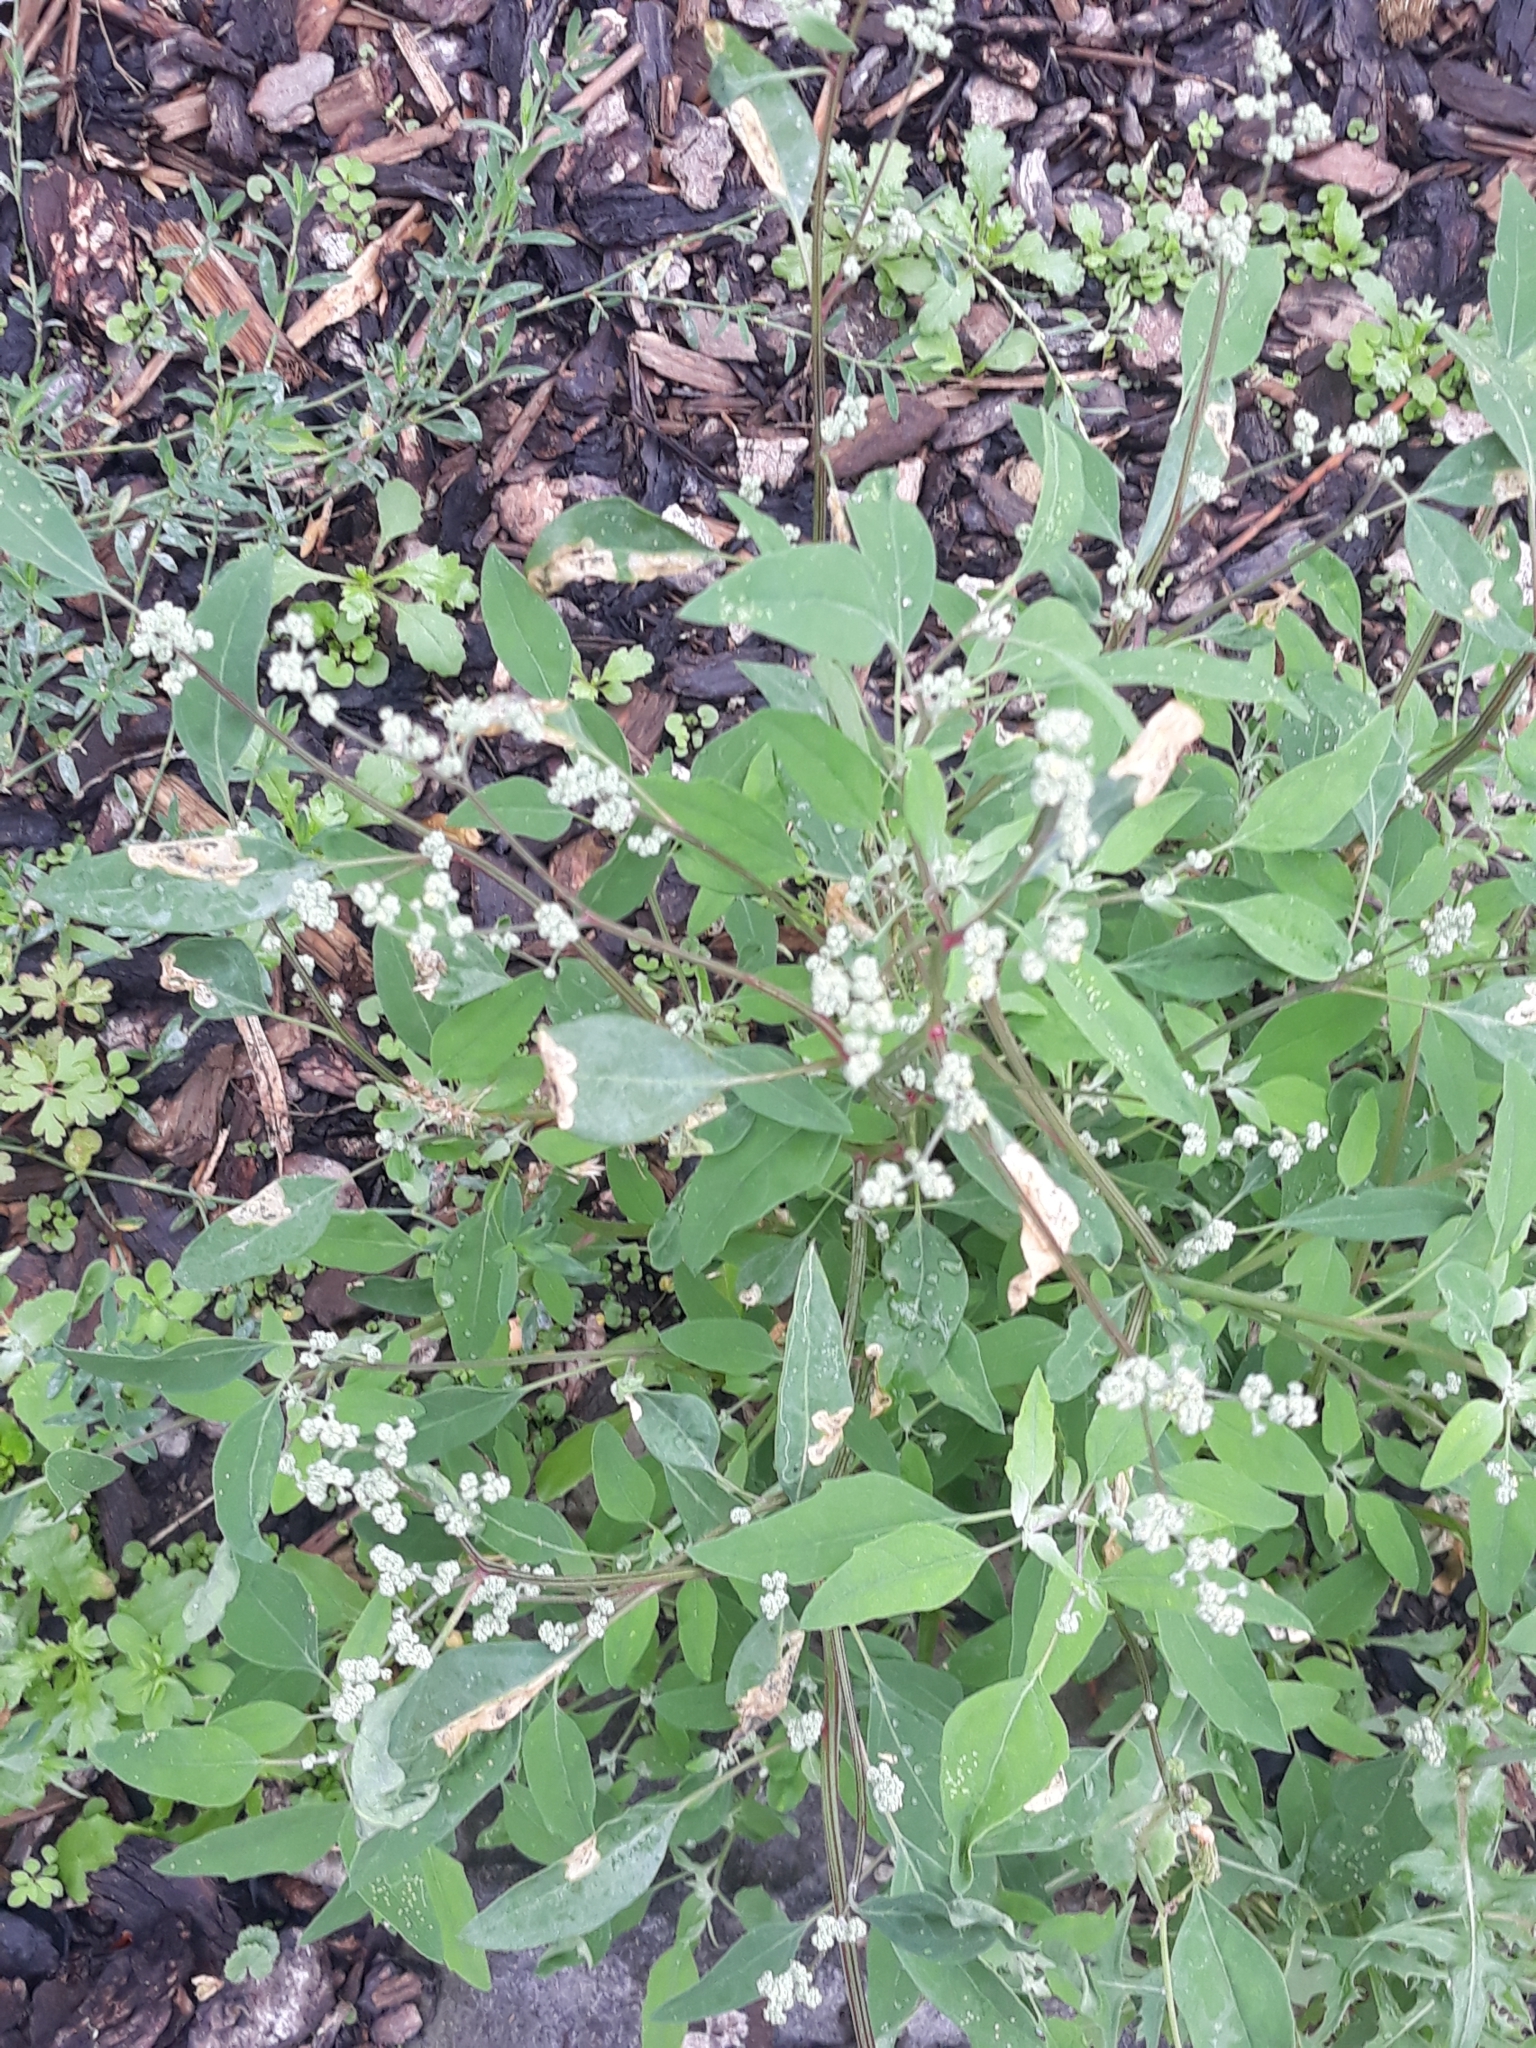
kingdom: Plantae
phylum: Tracheophyta
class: Magnoliopsida
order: Caryophyllales
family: Amaranthaceae
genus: Chenopodium
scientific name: Chenopodium album
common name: Fat-hen
